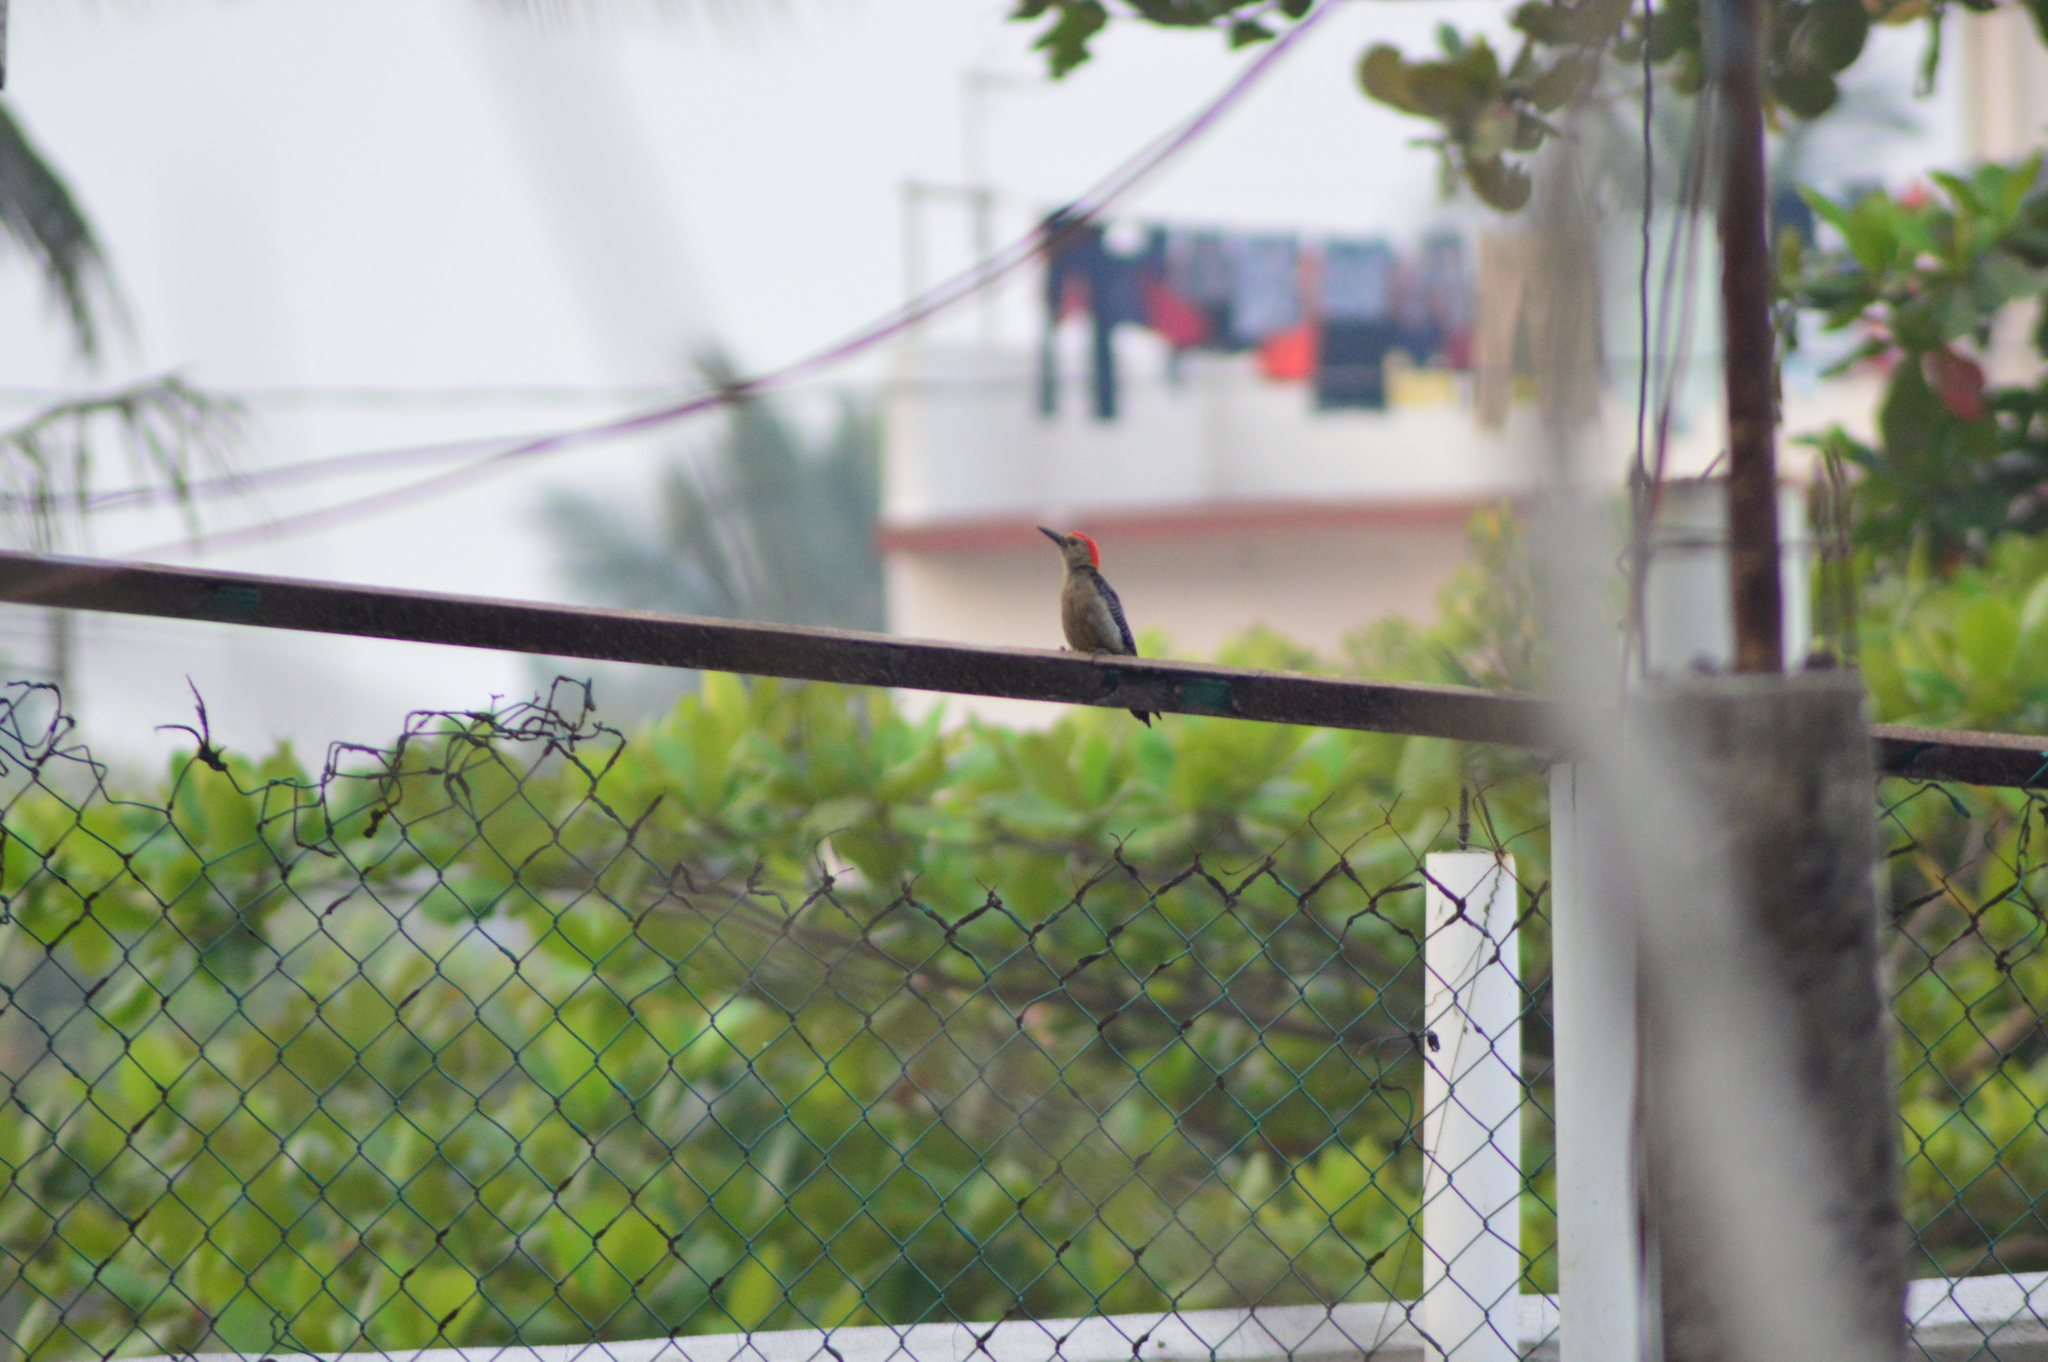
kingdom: Animalia
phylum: Chordata
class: Aves
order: Piciformes
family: Picidae
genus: Melanerpes
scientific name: Melanerpes aurifrons
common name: Golden-fronted woodpecker
